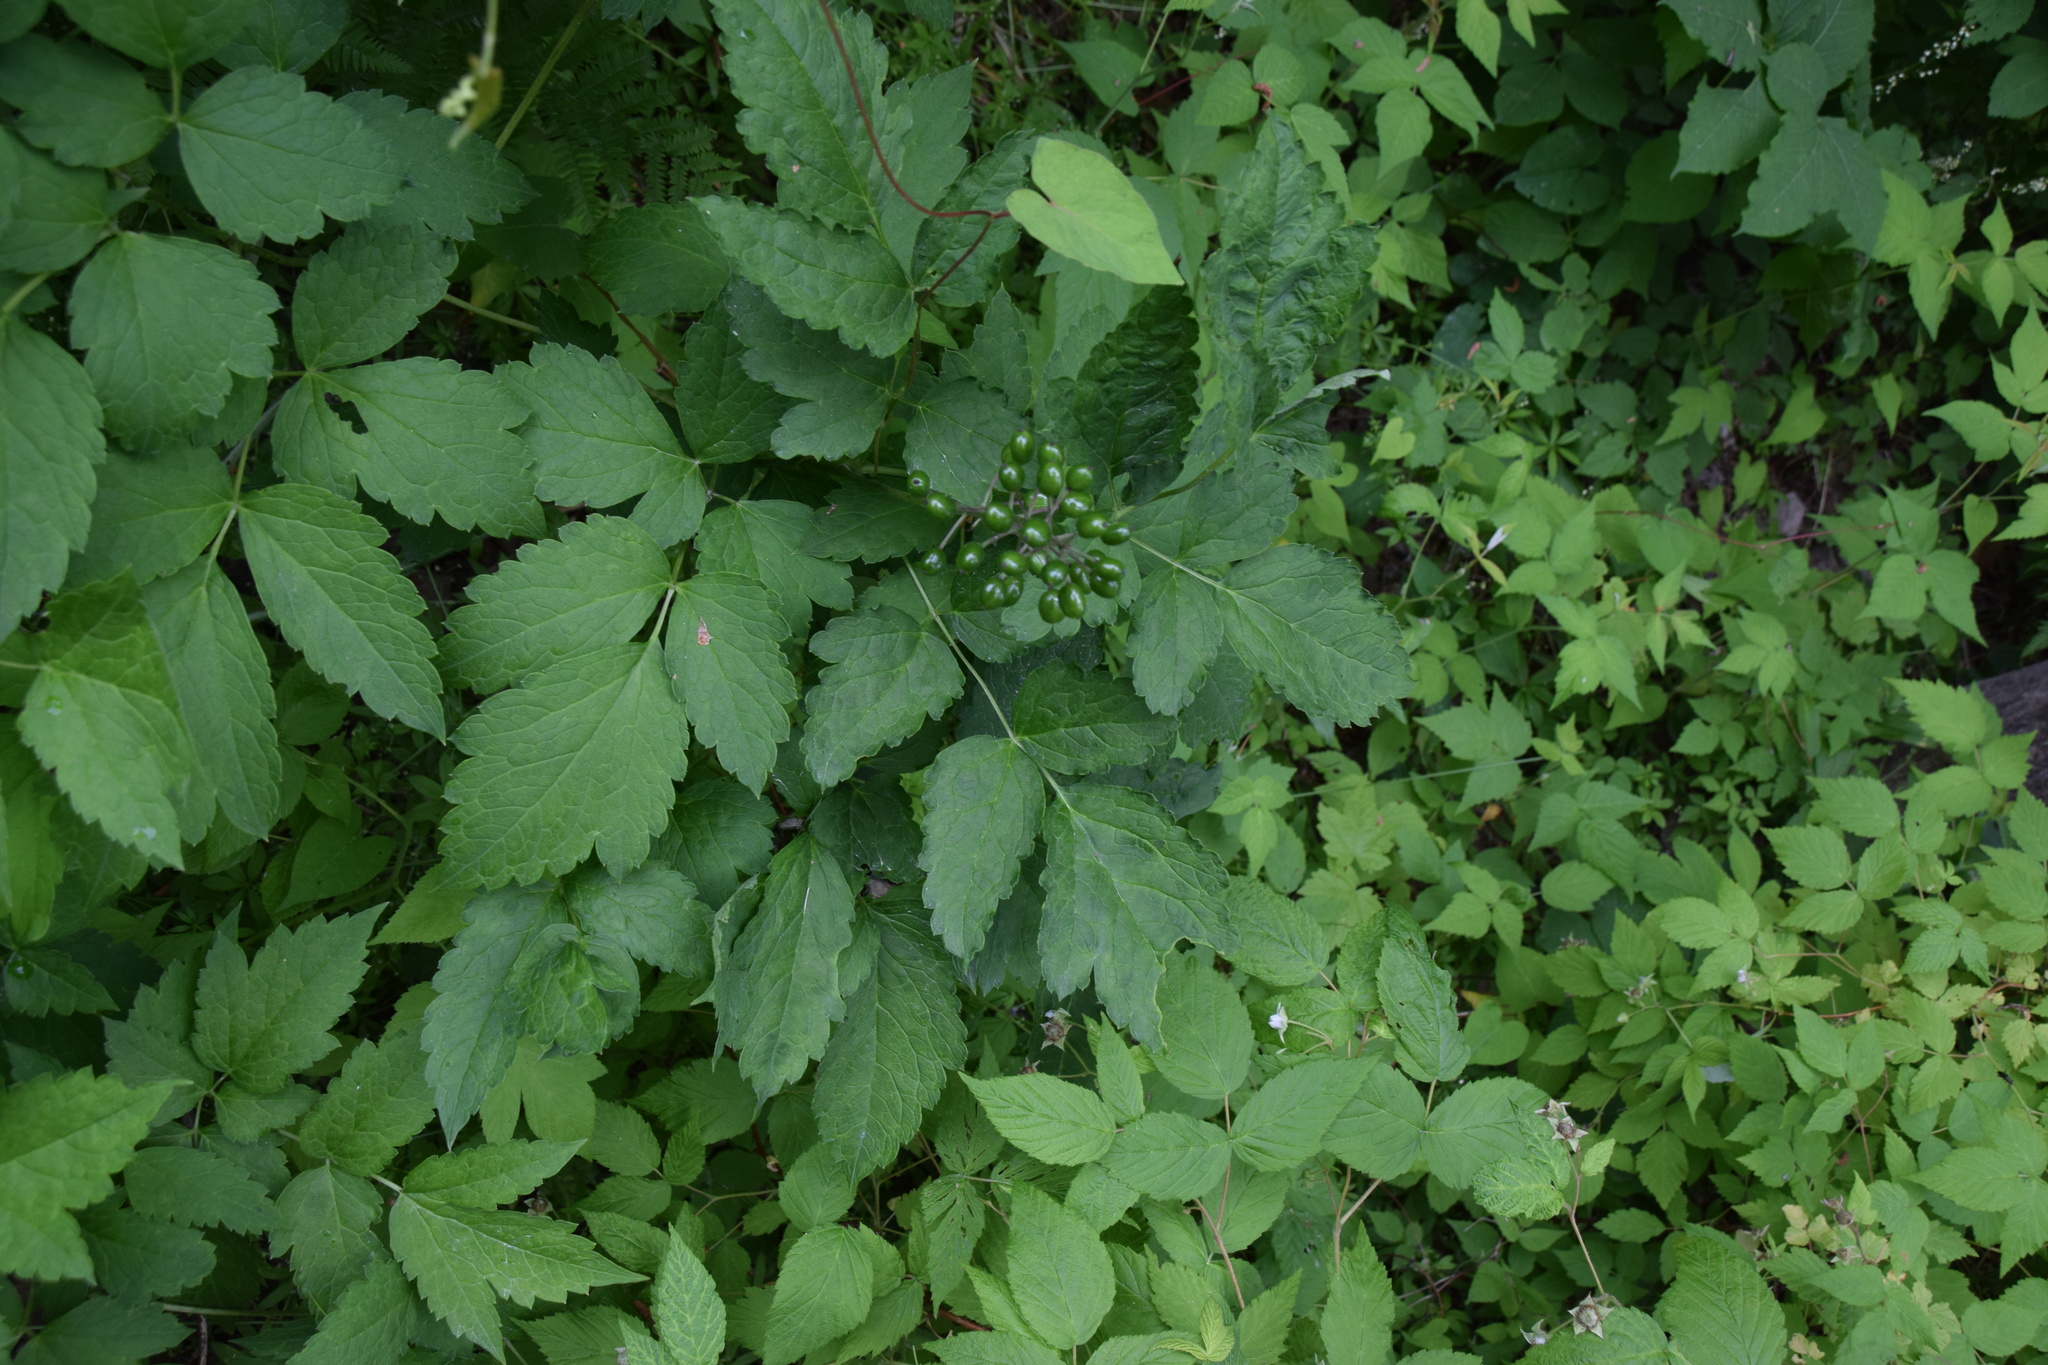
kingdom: Plantae
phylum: Tracheophyta
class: Magnoliopsida
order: Ranunculales
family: Ranunculaceae
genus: Actaea
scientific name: Actaea rubra
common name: Red baneberry
